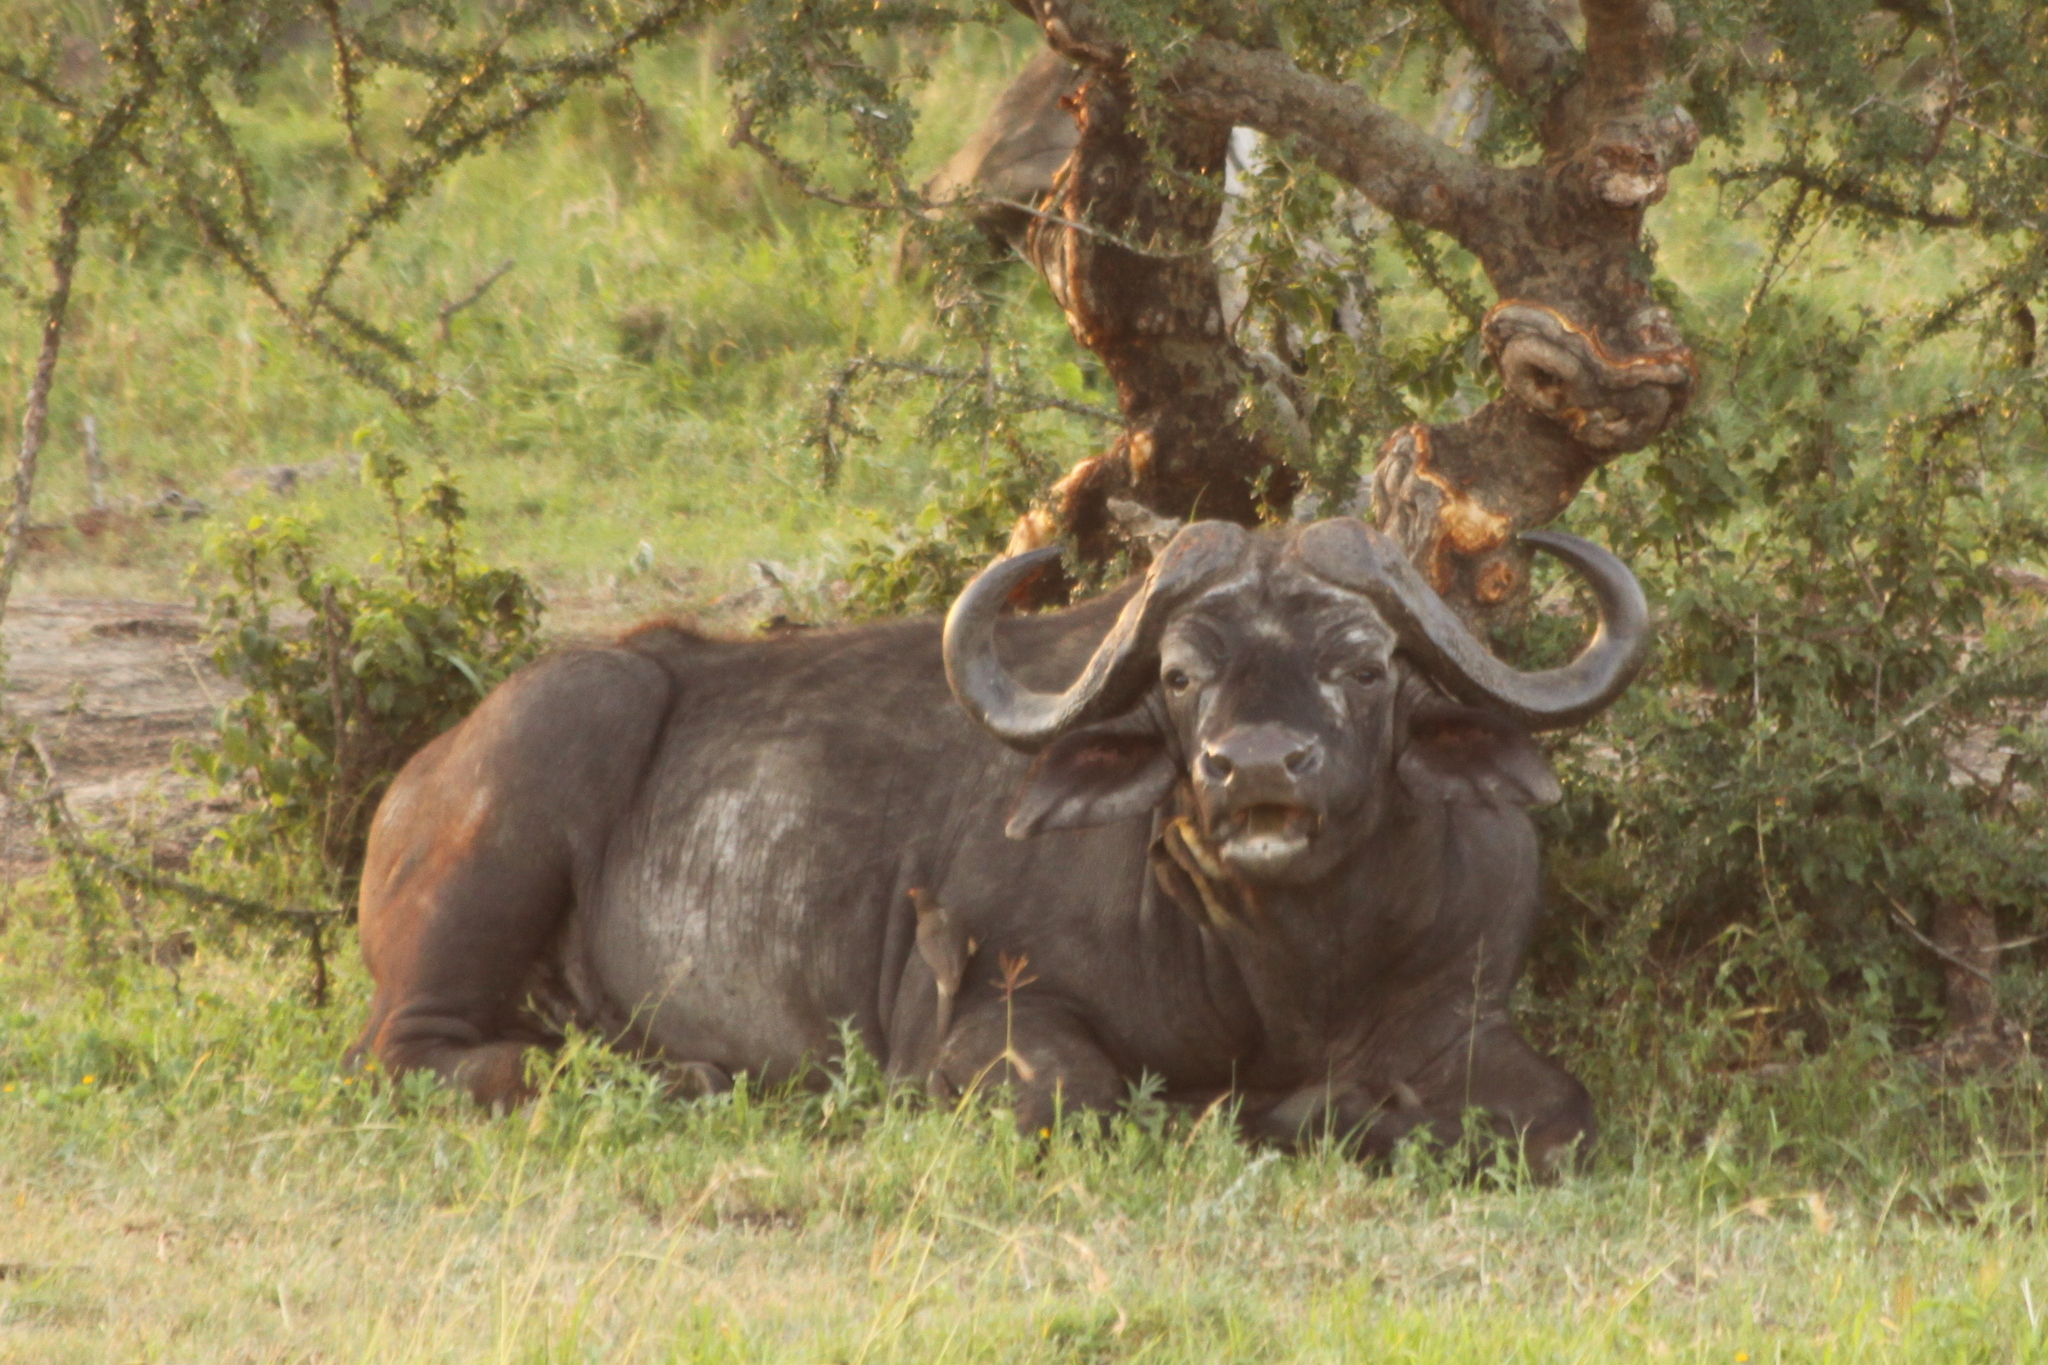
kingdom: Animalia
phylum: Chordata
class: Mammalia
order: Artiodactyla
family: Bovidae
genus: Syncerus
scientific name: Syncerus caffer
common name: African buffalo
